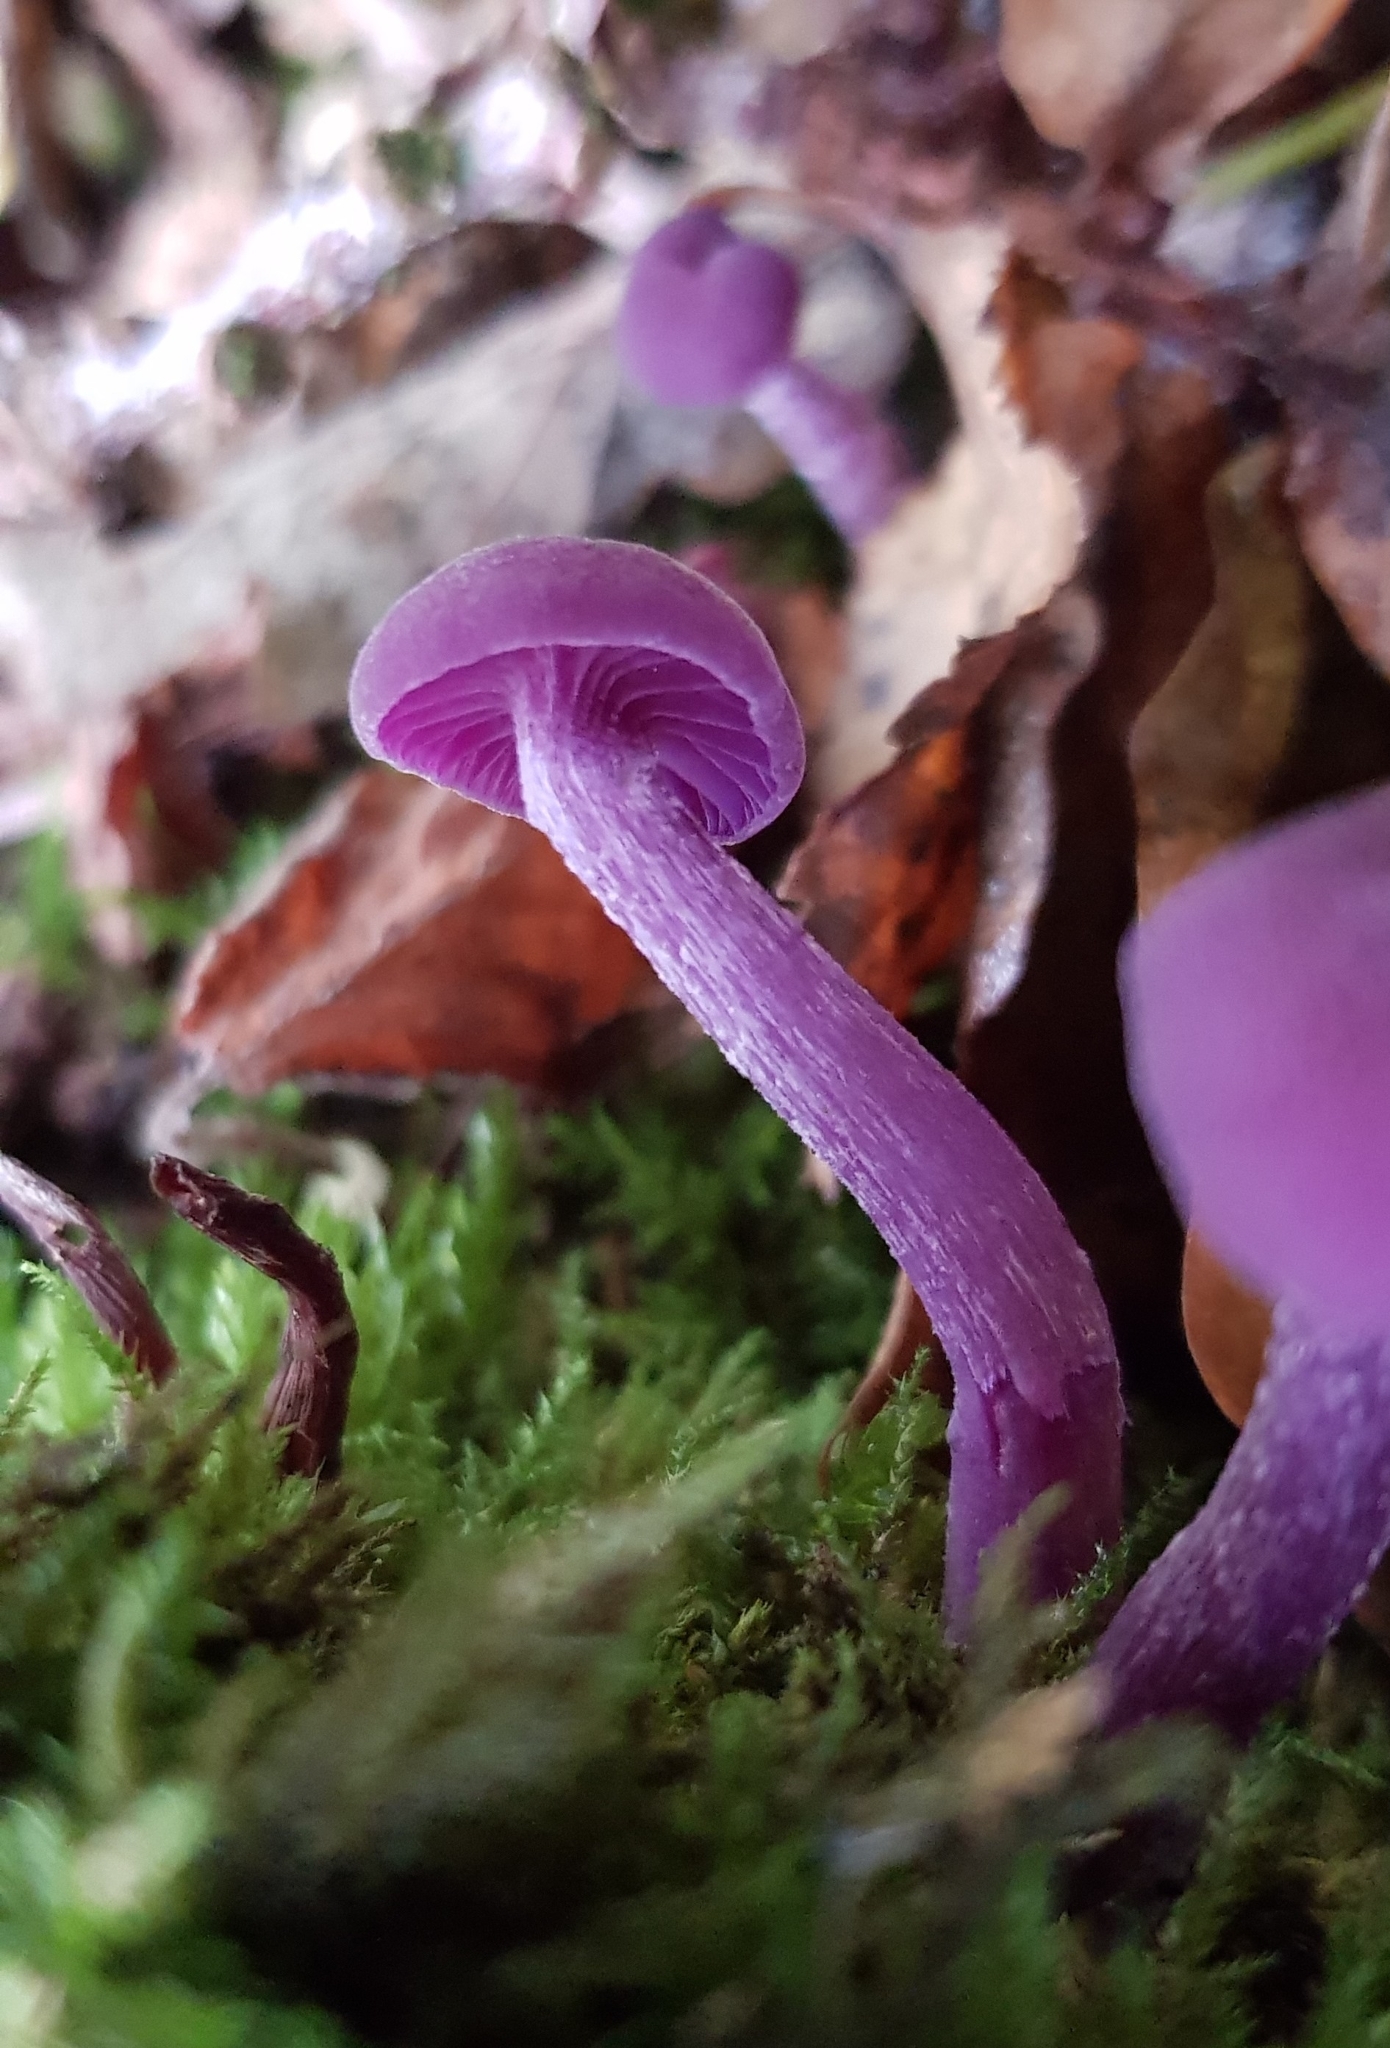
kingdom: Fungi
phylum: Basidiomycota
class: Agaricomycetes
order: Agaricales
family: Hydnangiaceae
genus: Laccaria
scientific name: Laccaria amethystina
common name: Amethyst deceiver
